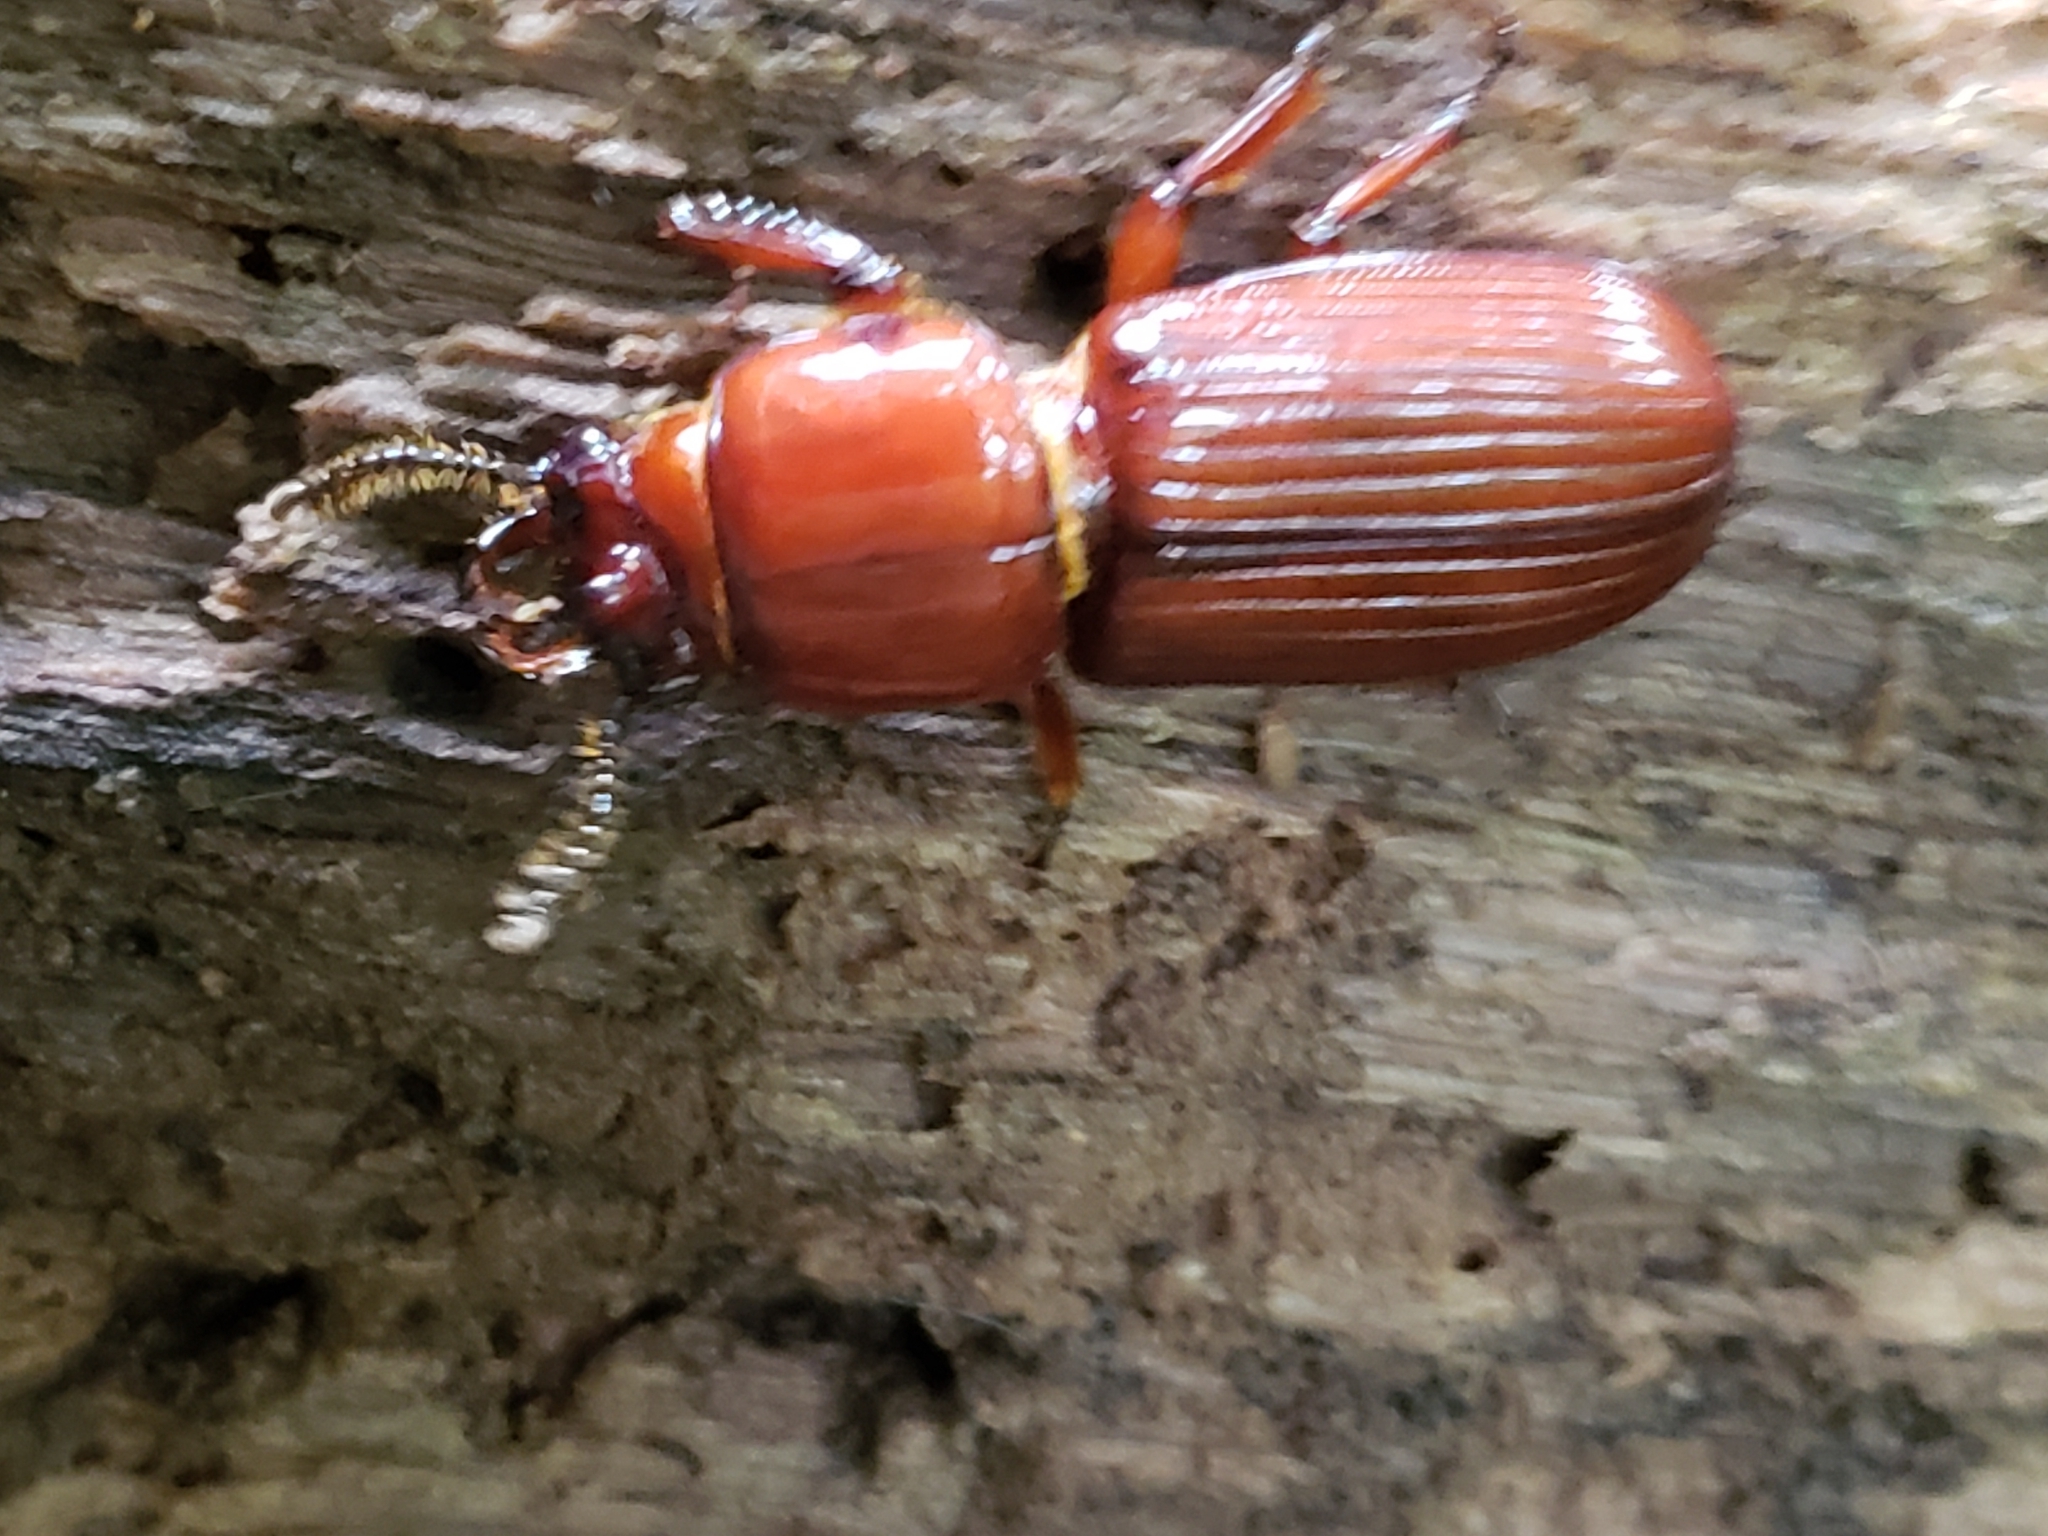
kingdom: Animalia
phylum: Arthropoda
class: Insecta
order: Coleoptera
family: Passalidae
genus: Odontotaenius
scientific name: Odontotaenius disjunctus
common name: Patent leather beetle
